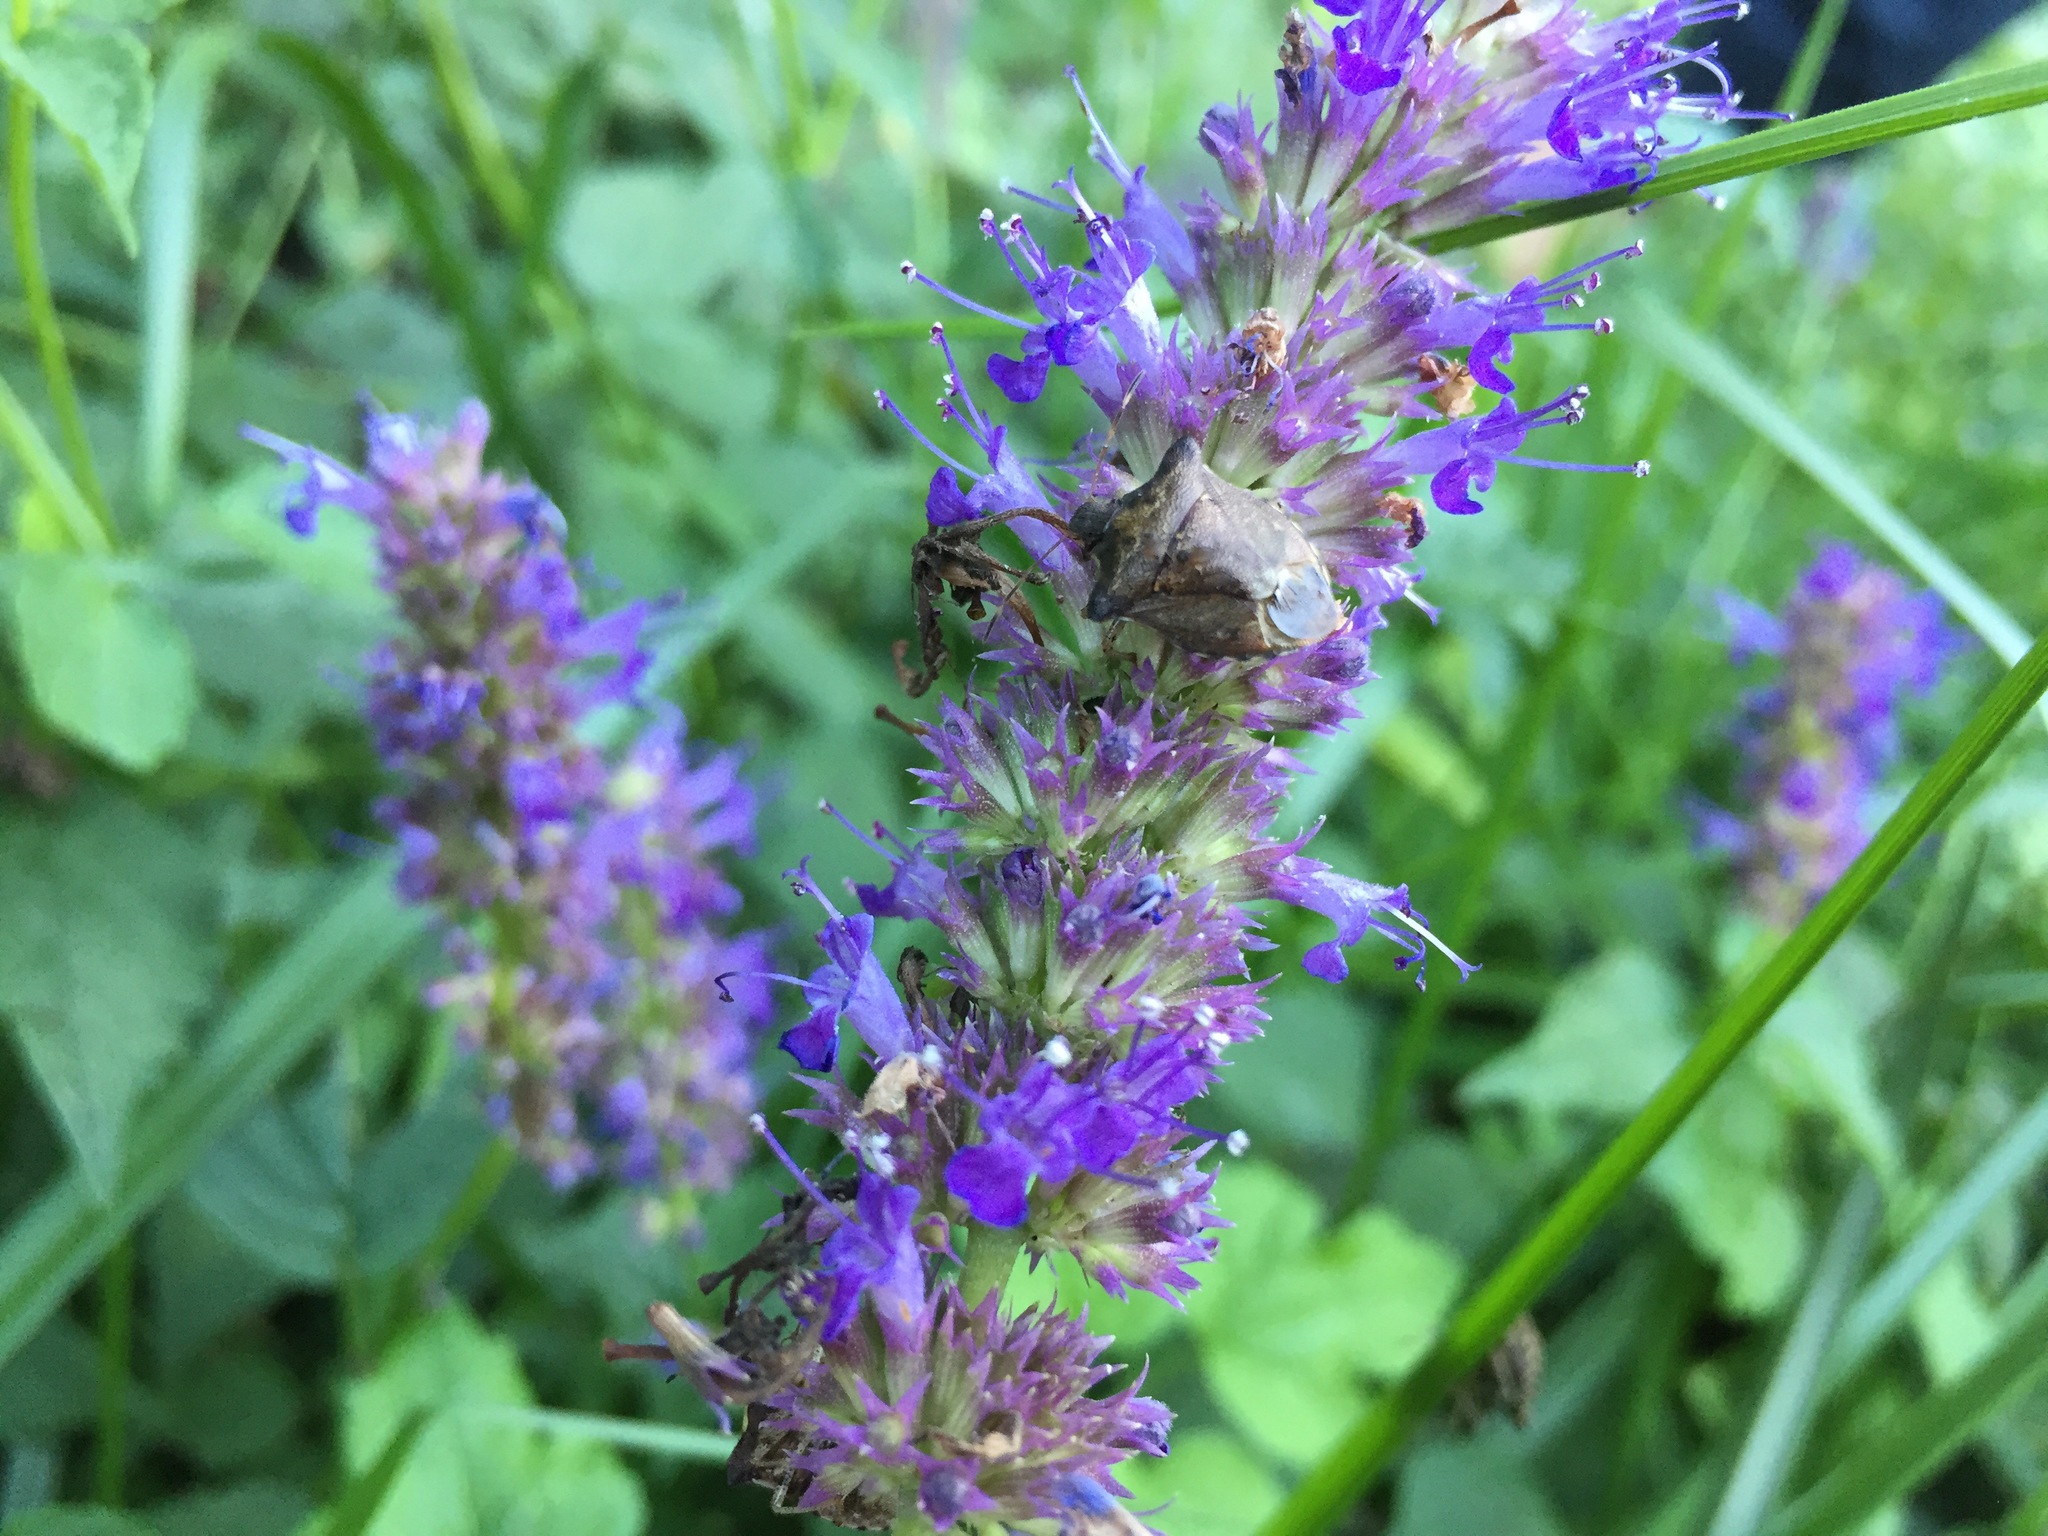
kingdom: Animalia
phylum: Arthropoda
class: Insecta
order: Hemiptera
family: Pentatomidae
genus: Carbula
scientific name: Carbula putoni
